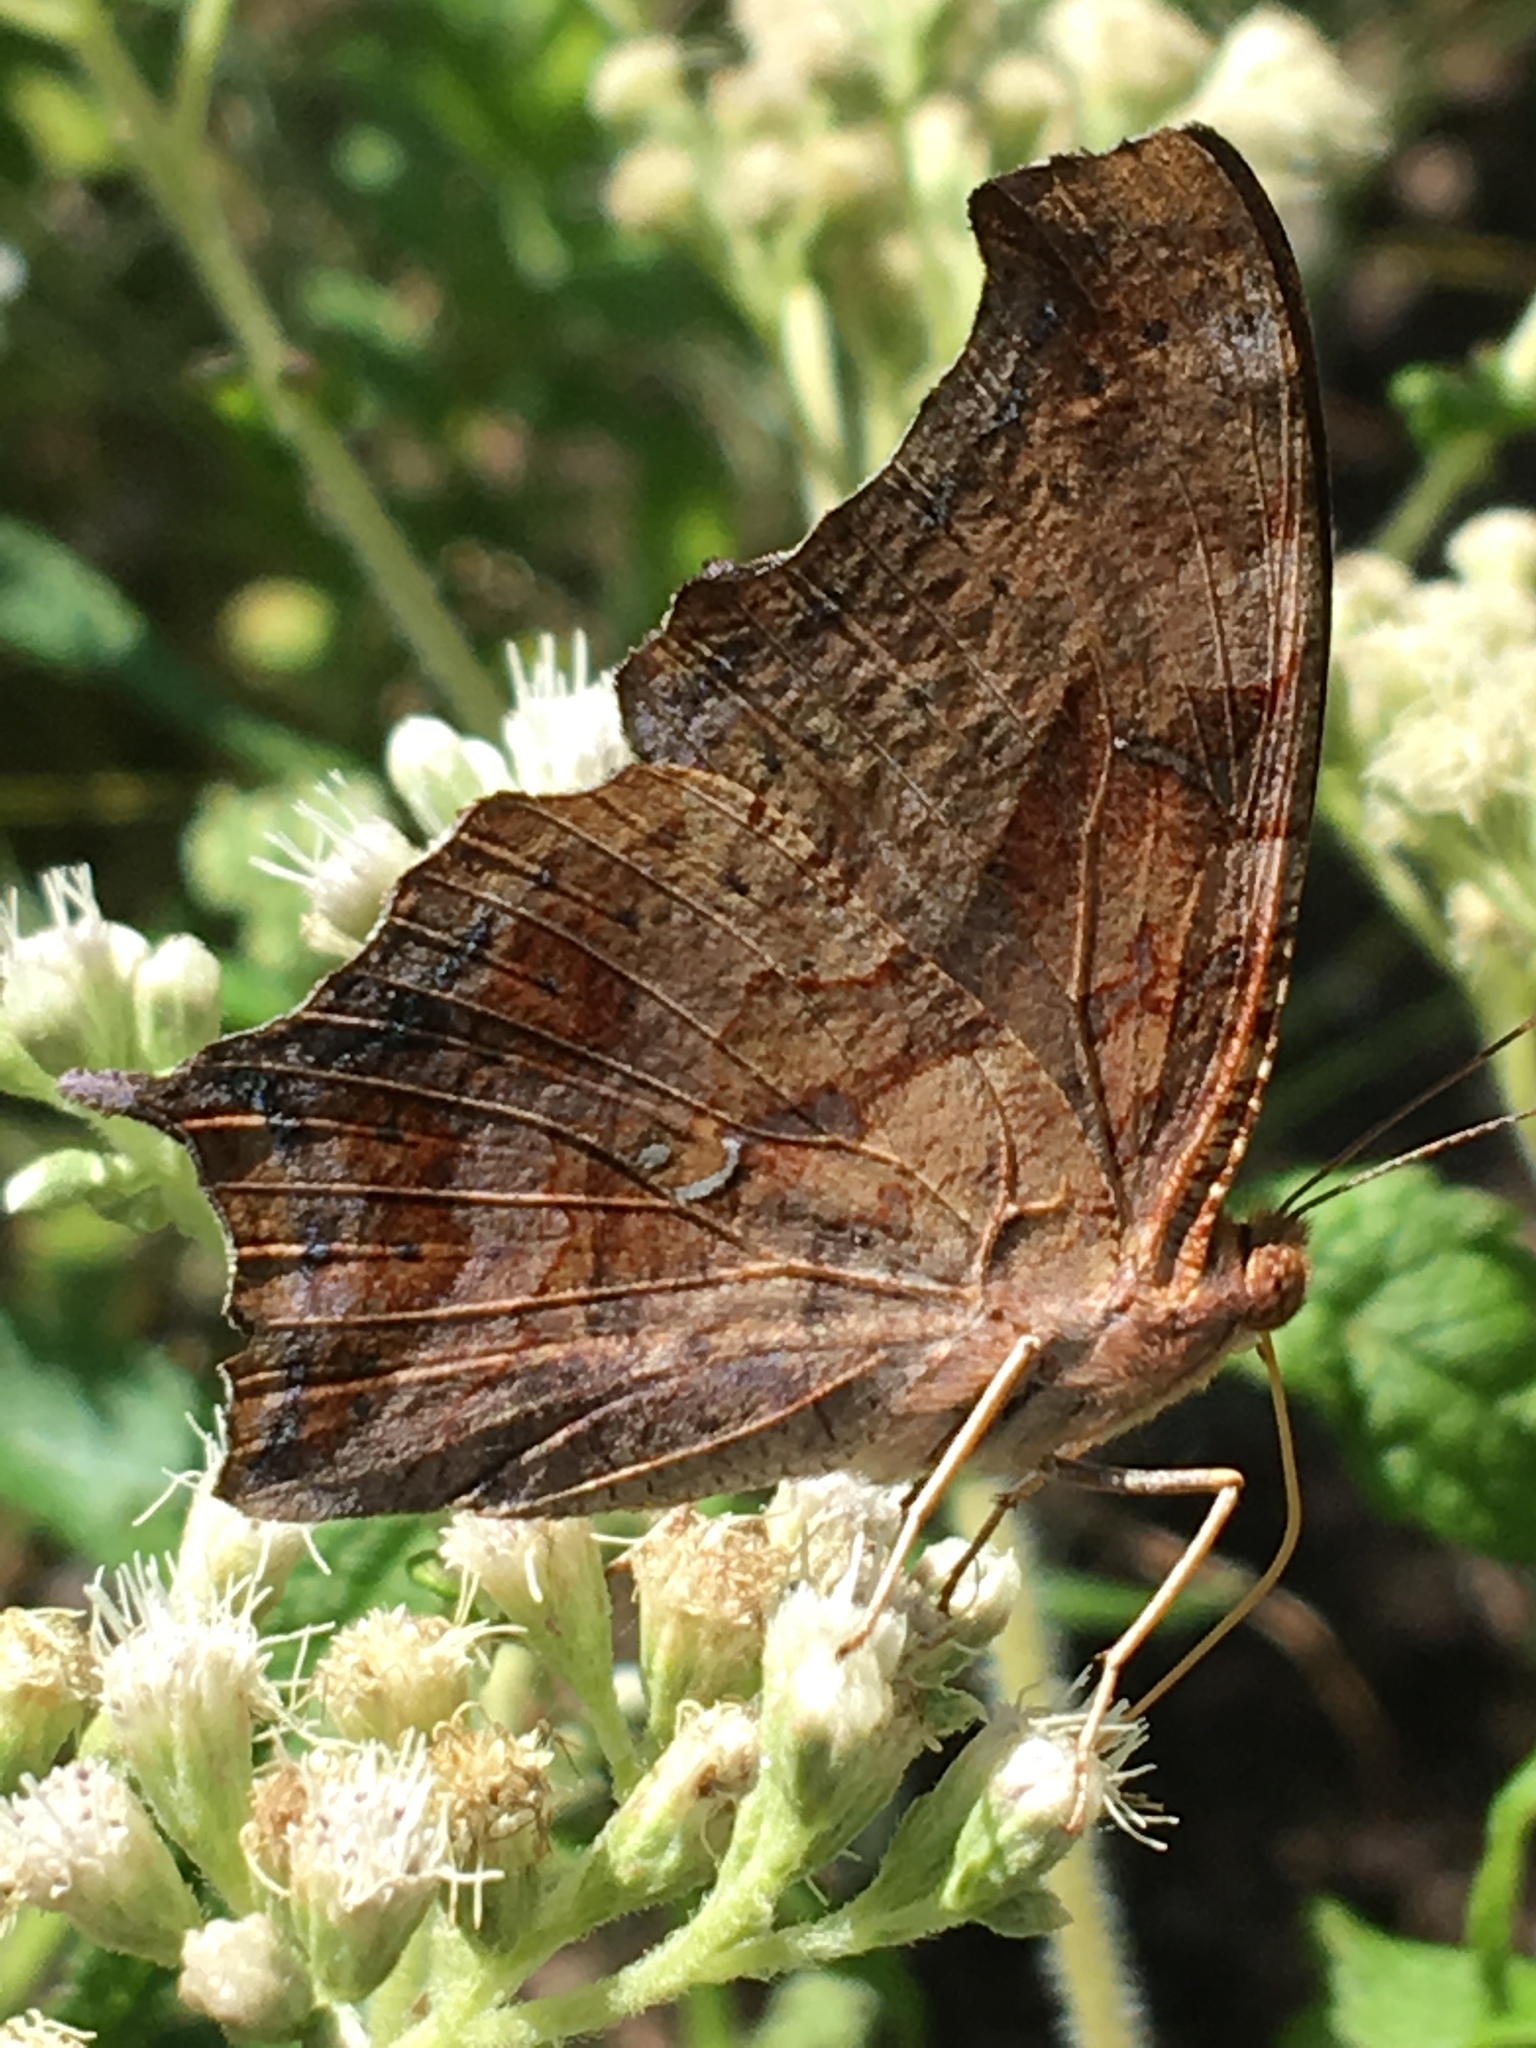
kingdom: Animalia
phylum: Arthropoda
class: Insecta
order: Lepidoptera
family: Nymphalidae
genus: Polygonia
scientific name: Polygonia interrogationis
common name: Question mark
